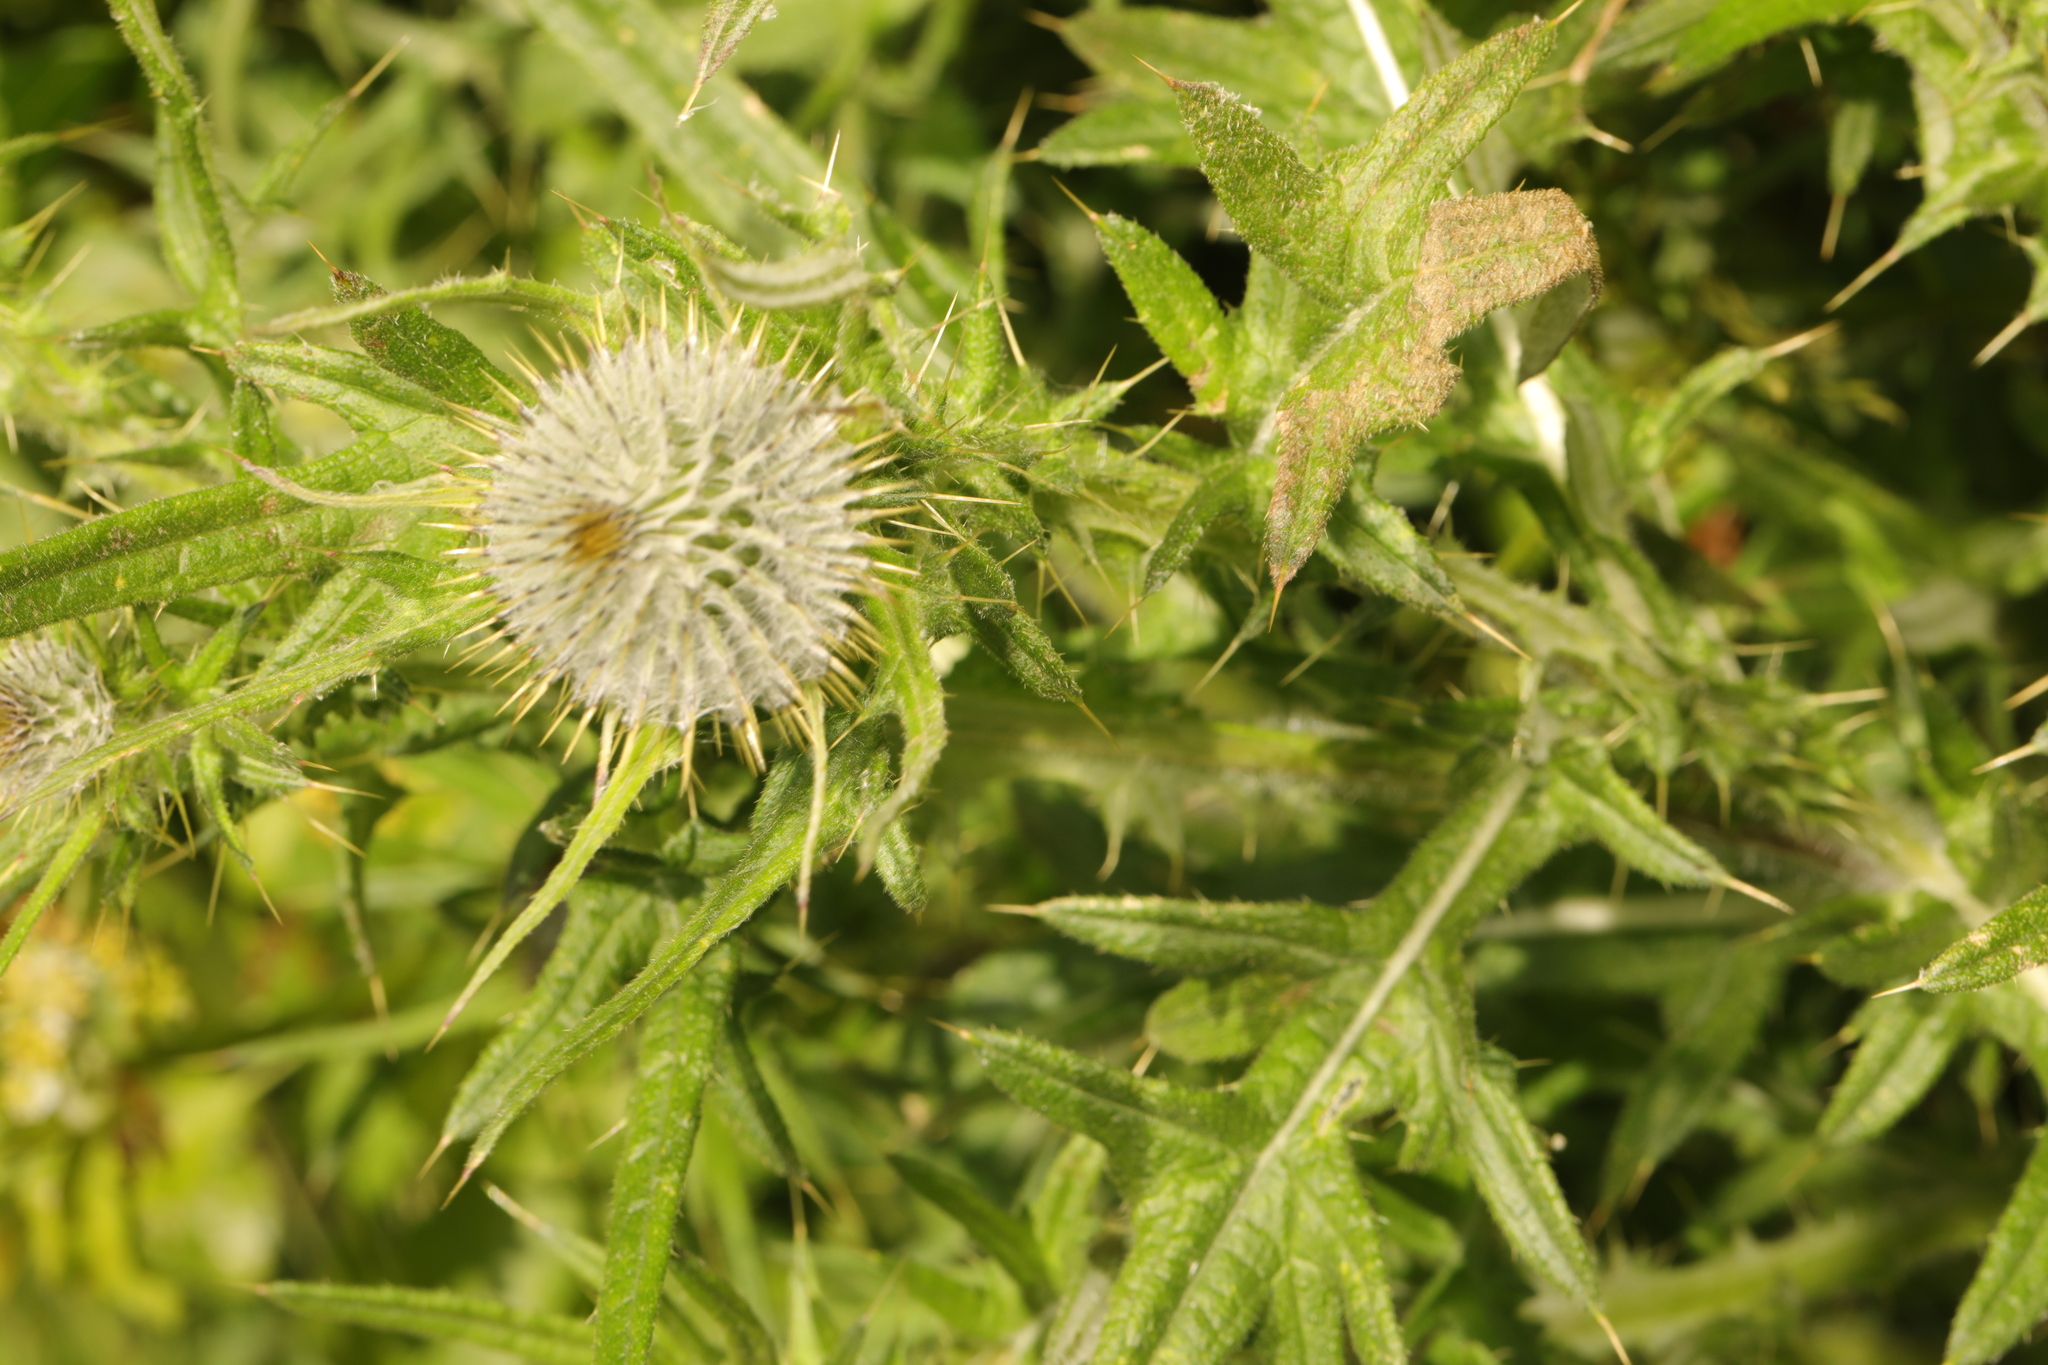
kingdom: Plantae
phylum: Tracheophyta
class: Magnoliopsida
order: Asterales
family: Asteraceae
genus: Cirsium
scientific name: Cirsium vulgare
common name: Bull thistle
